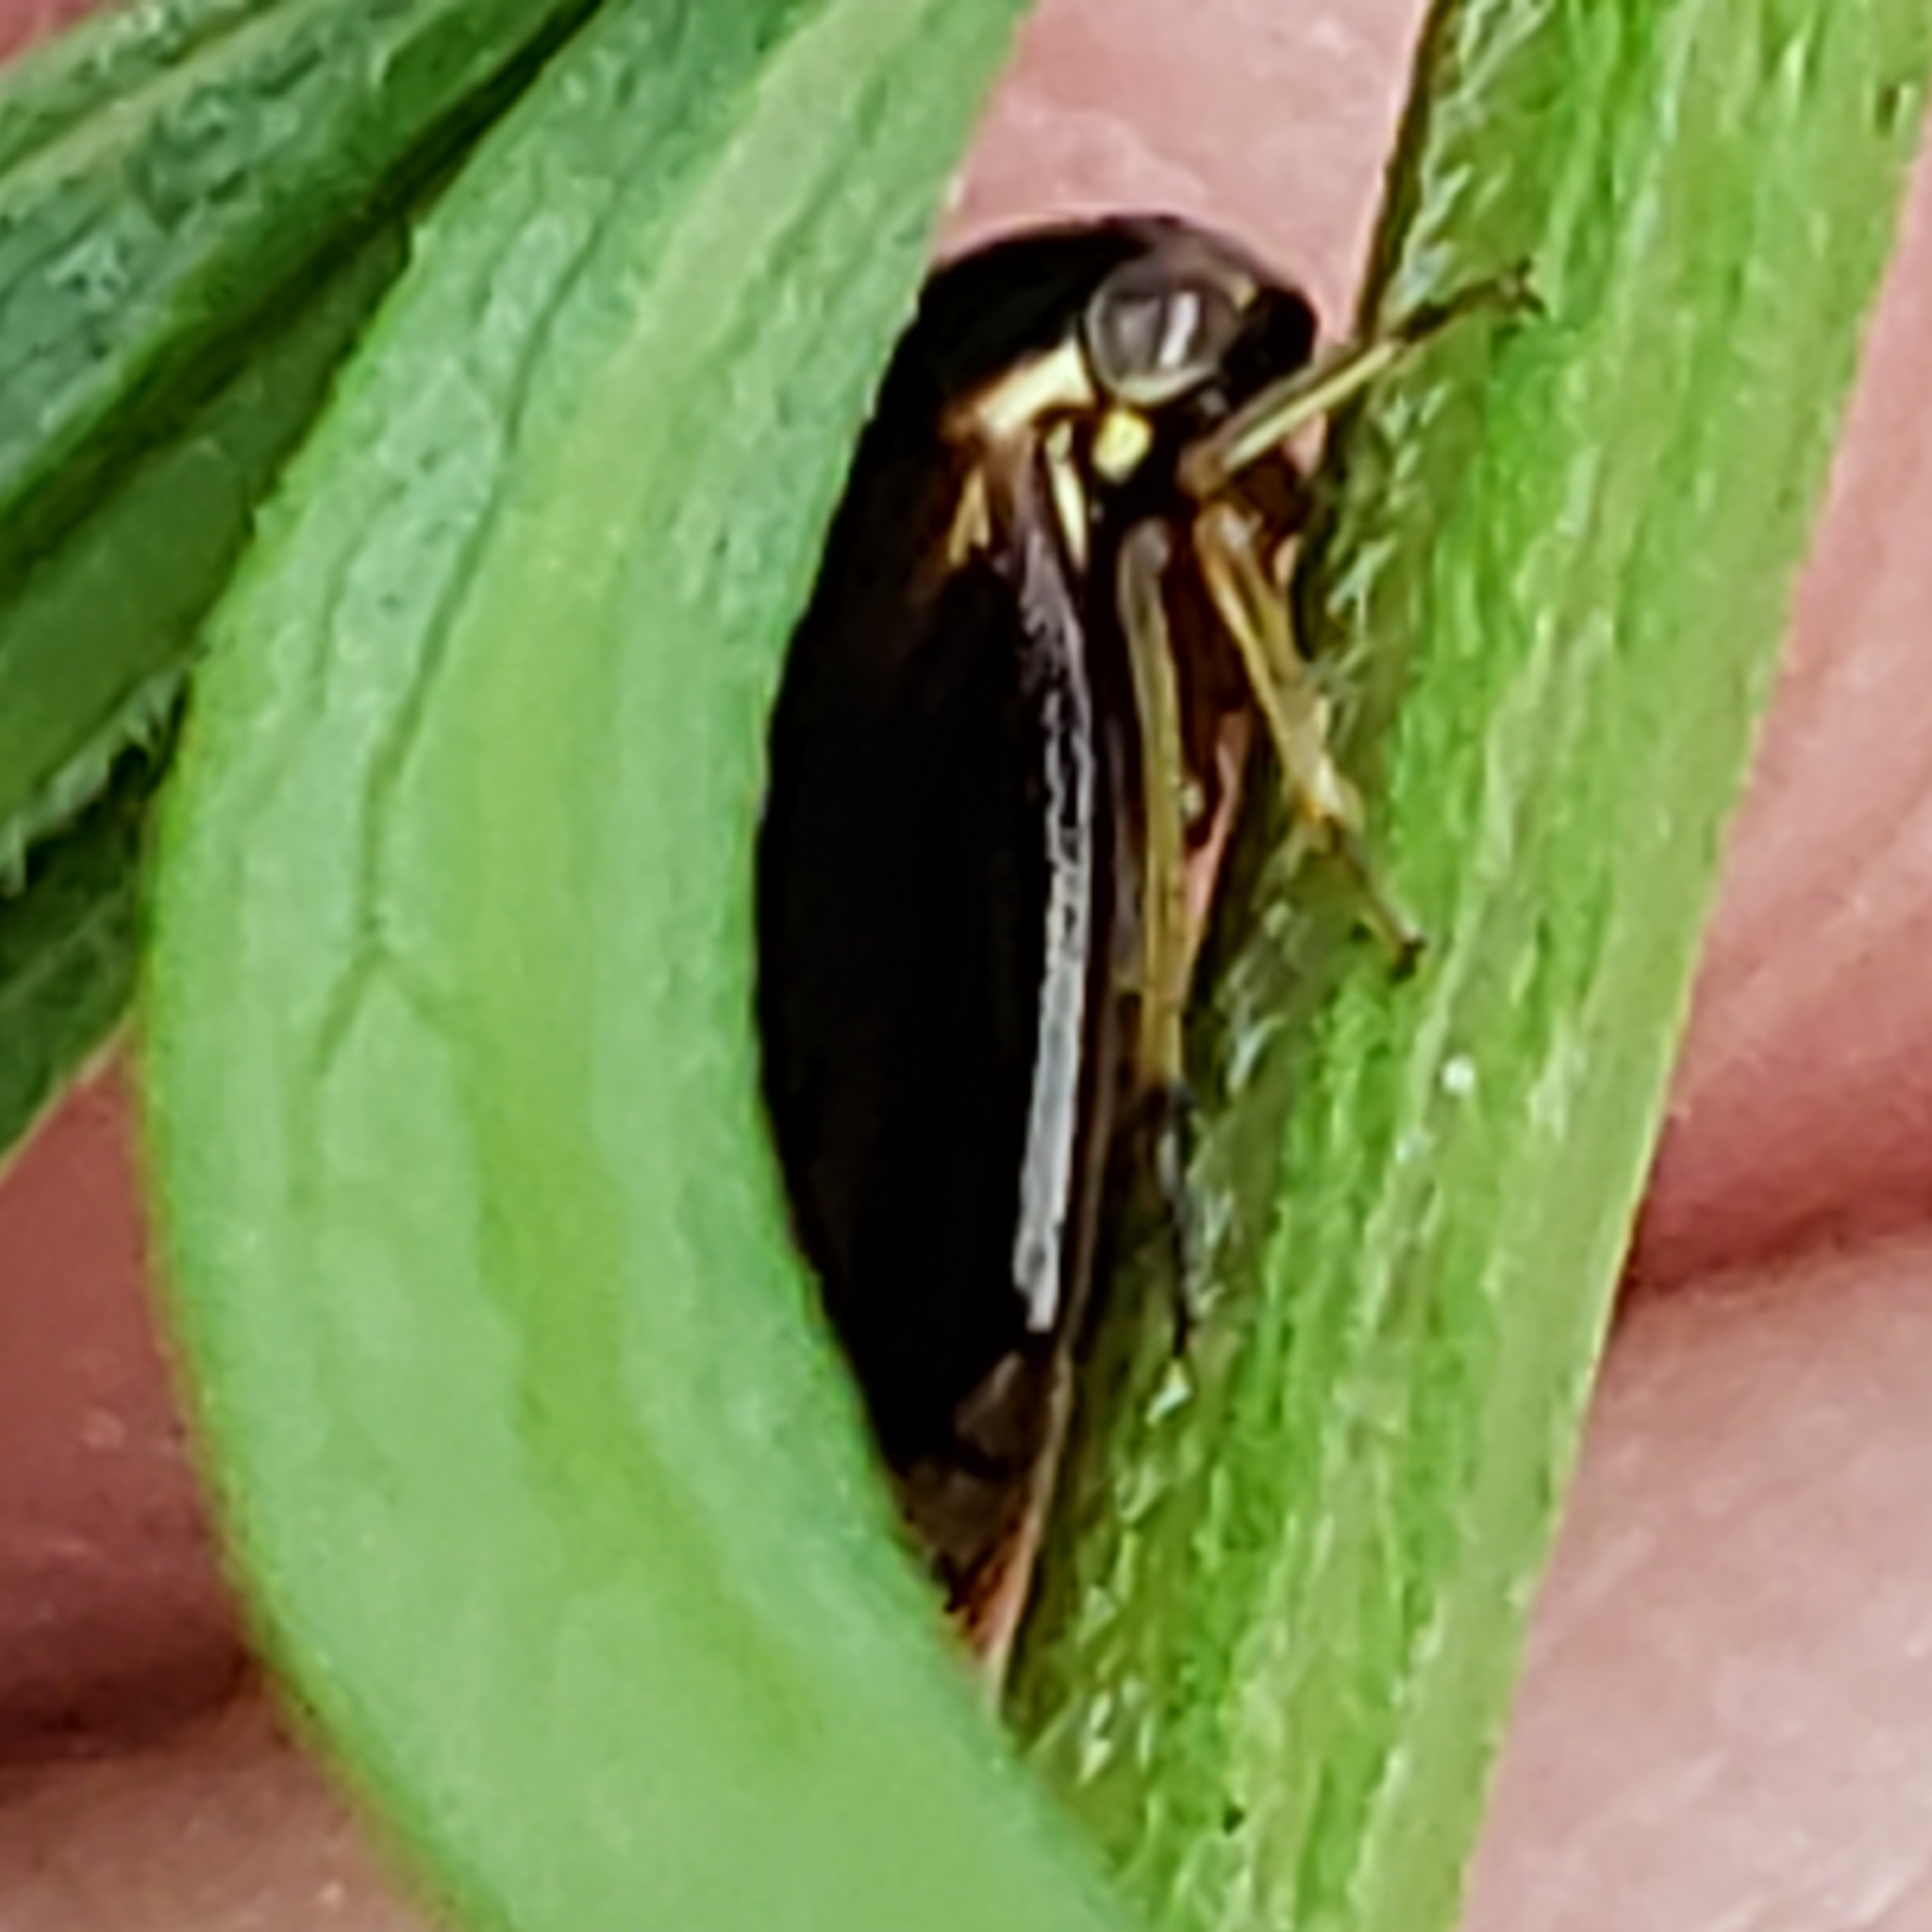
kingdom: Animalia
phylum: Arthropoda
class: Insecta
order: Hemiptera
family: Membracidae
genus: Acutalis
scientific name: Acutalis tartarea
